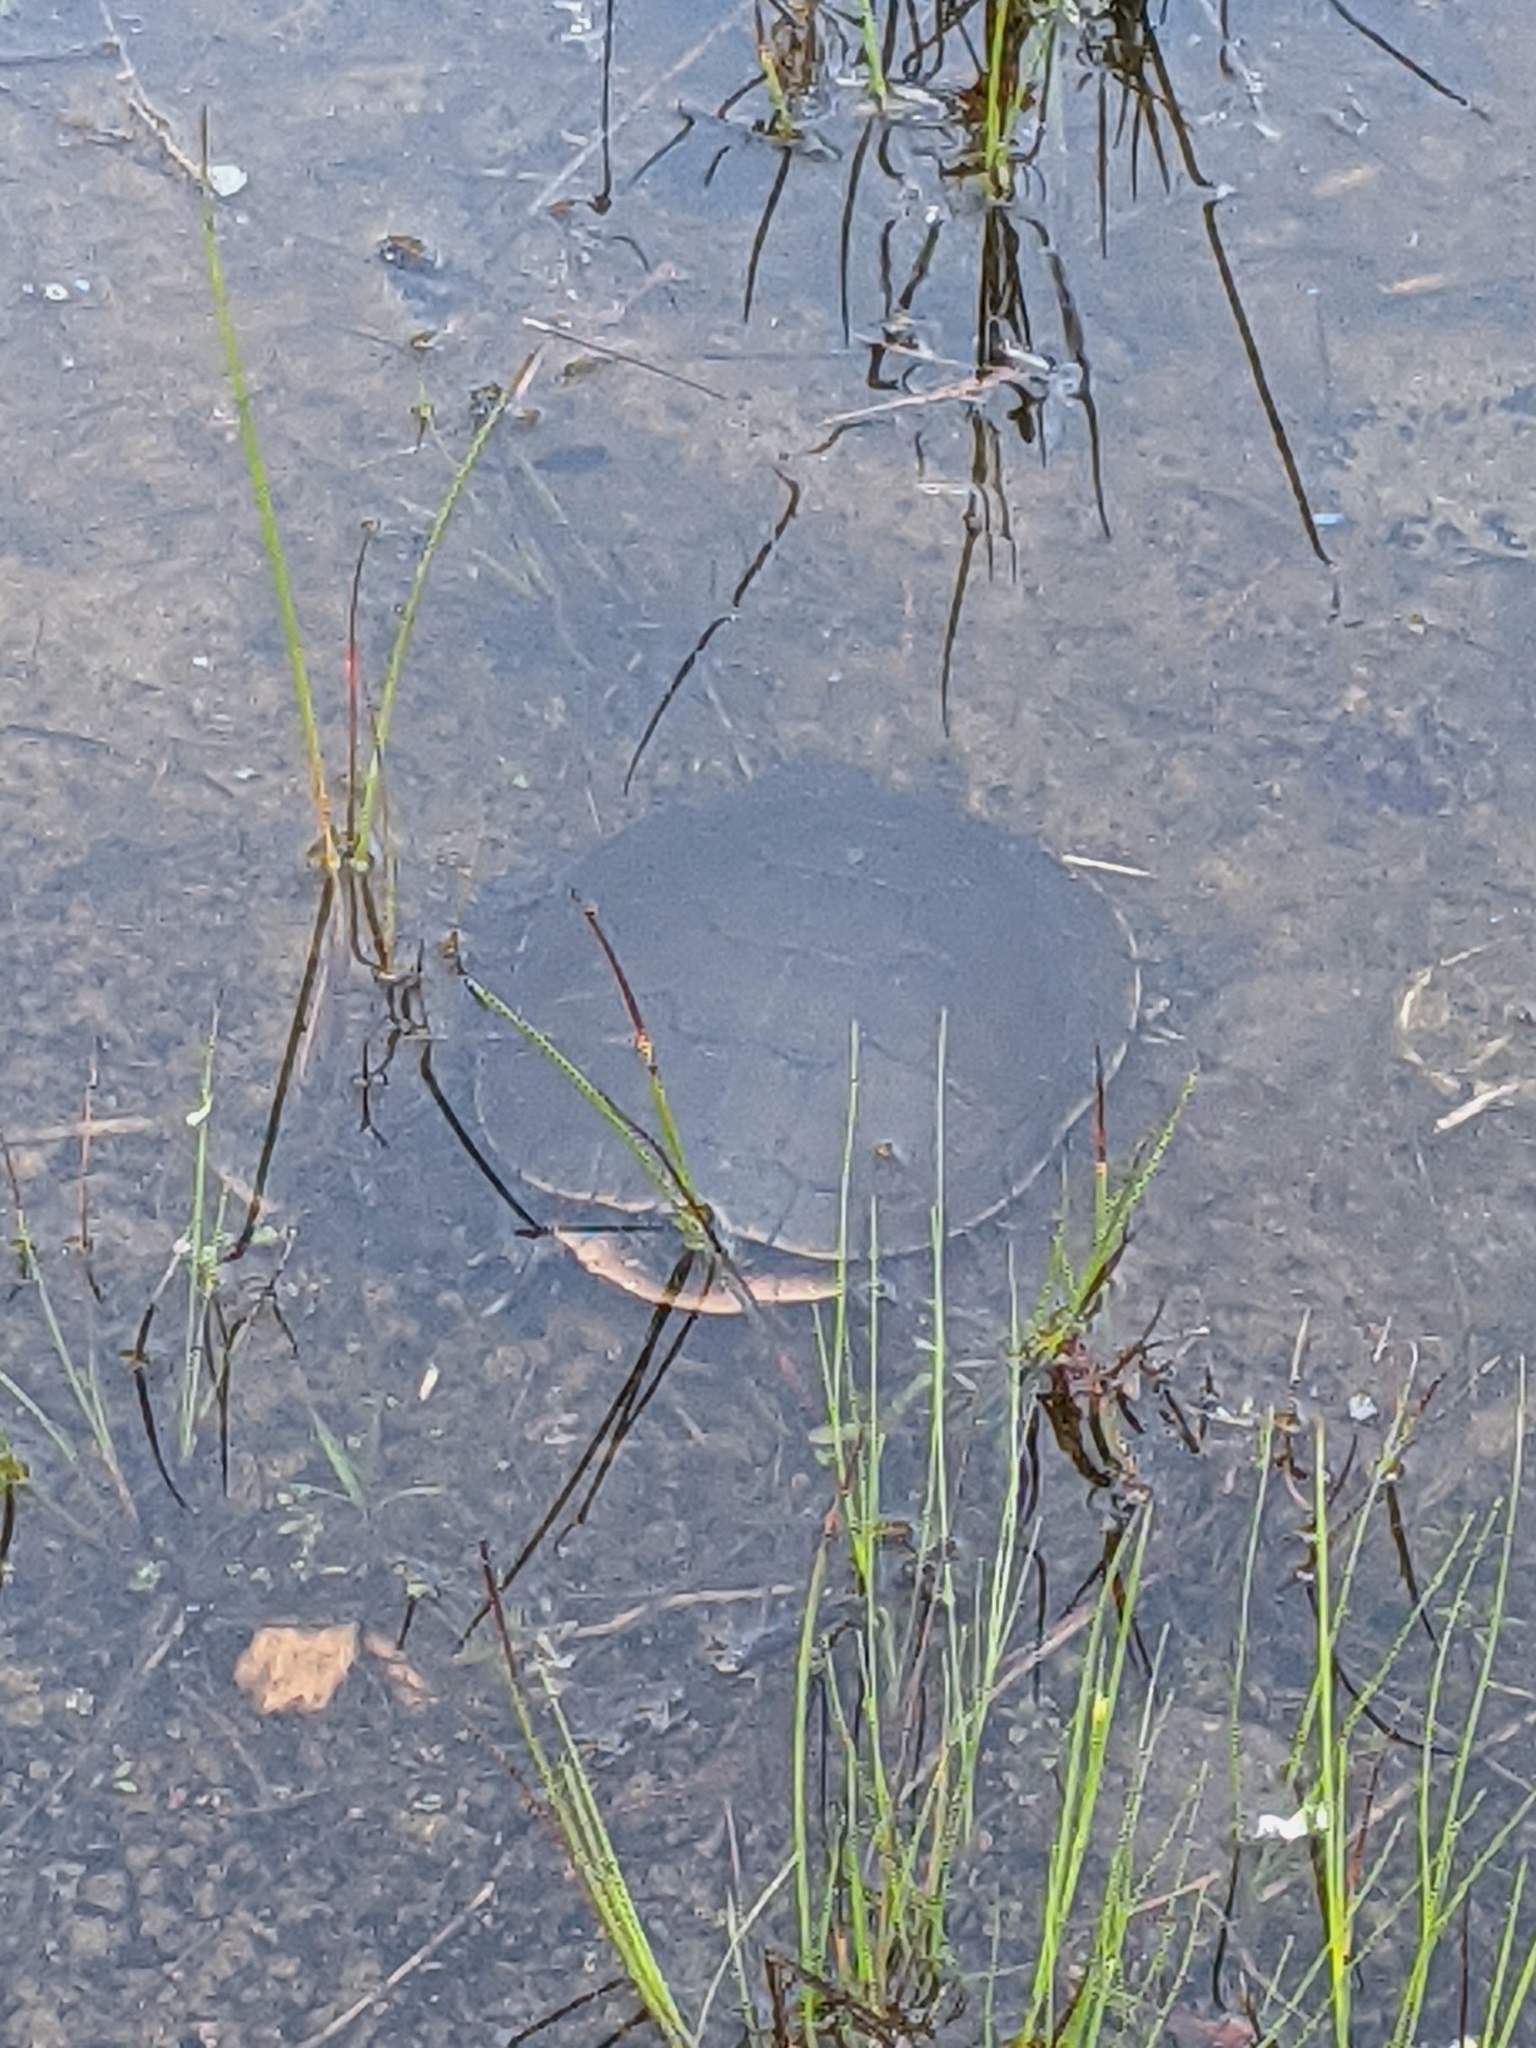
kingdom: Animalia
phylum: Chordata
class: Testudines
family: Emydidae
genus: Chrysemys
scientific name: Chrysemys picta
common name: Painted turtle
